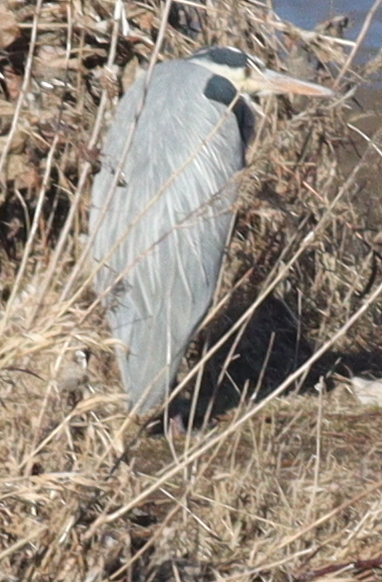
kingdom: Animalia
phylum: Chordata
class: Aves
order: Pelecaniformes
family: Ardeidae
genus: Ardea
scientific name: Ardea cinerea
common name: Grey heron
